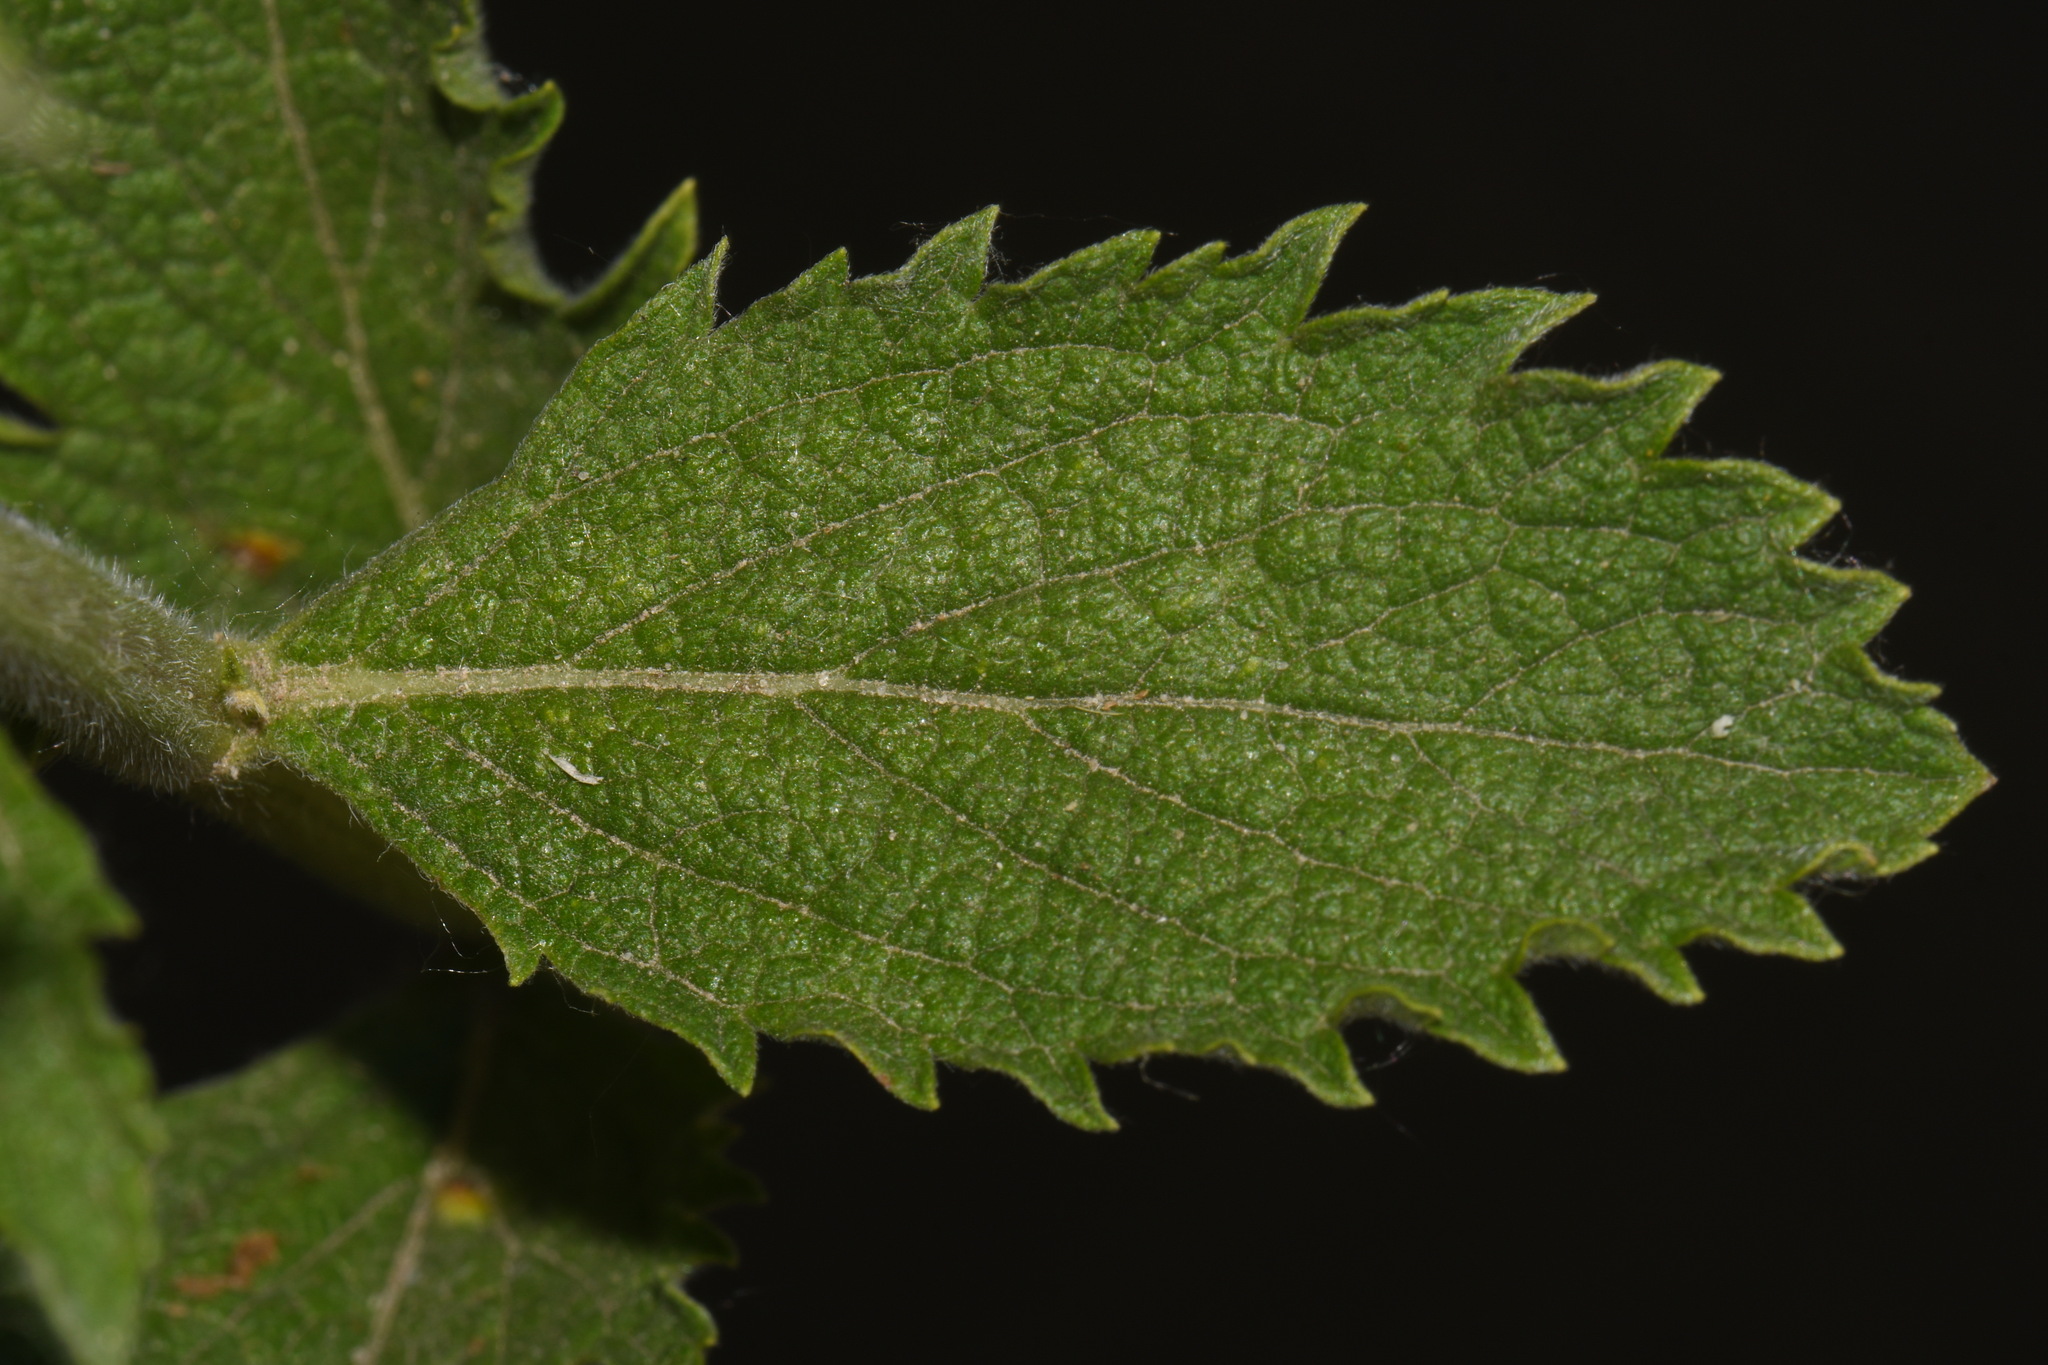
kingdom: Plantae
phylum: Tracheophyta
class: Magnoliopsida
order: Lamiales
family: Verbenaceae
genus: Verbena
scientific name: Verbena stricta
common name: Hoary vervain
